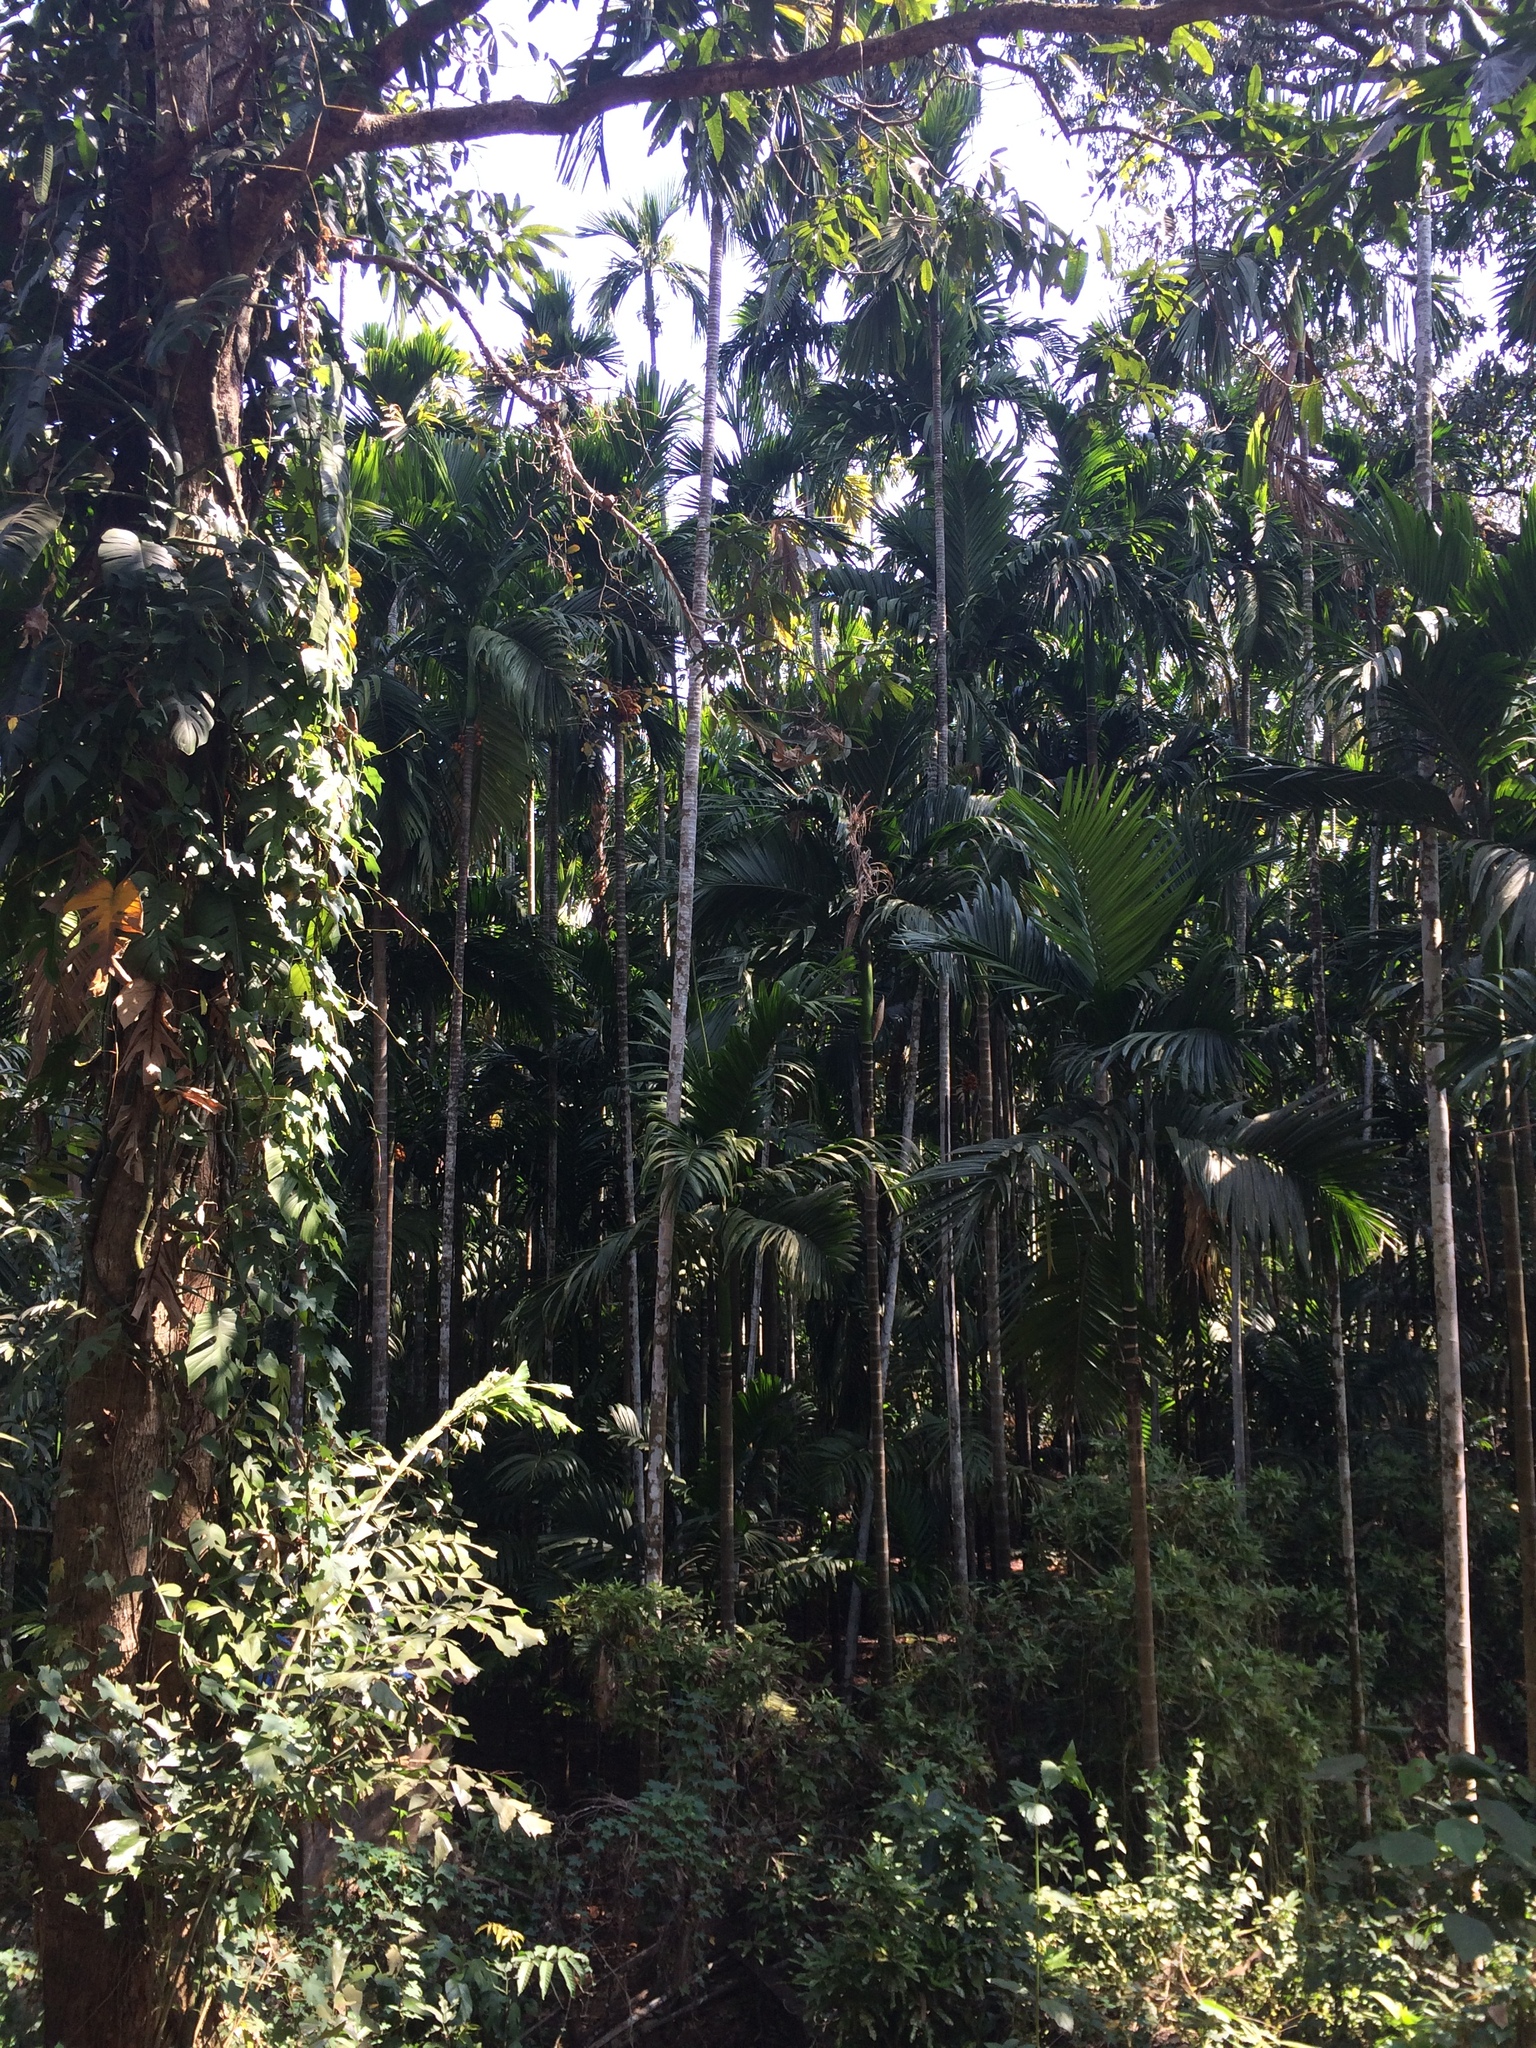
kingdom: Plantae
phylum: Tracheophyta
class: Liliopsida
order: Arecales
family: Arecaceae
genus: Areca
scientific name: Areca catechu
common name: Indian-nut
